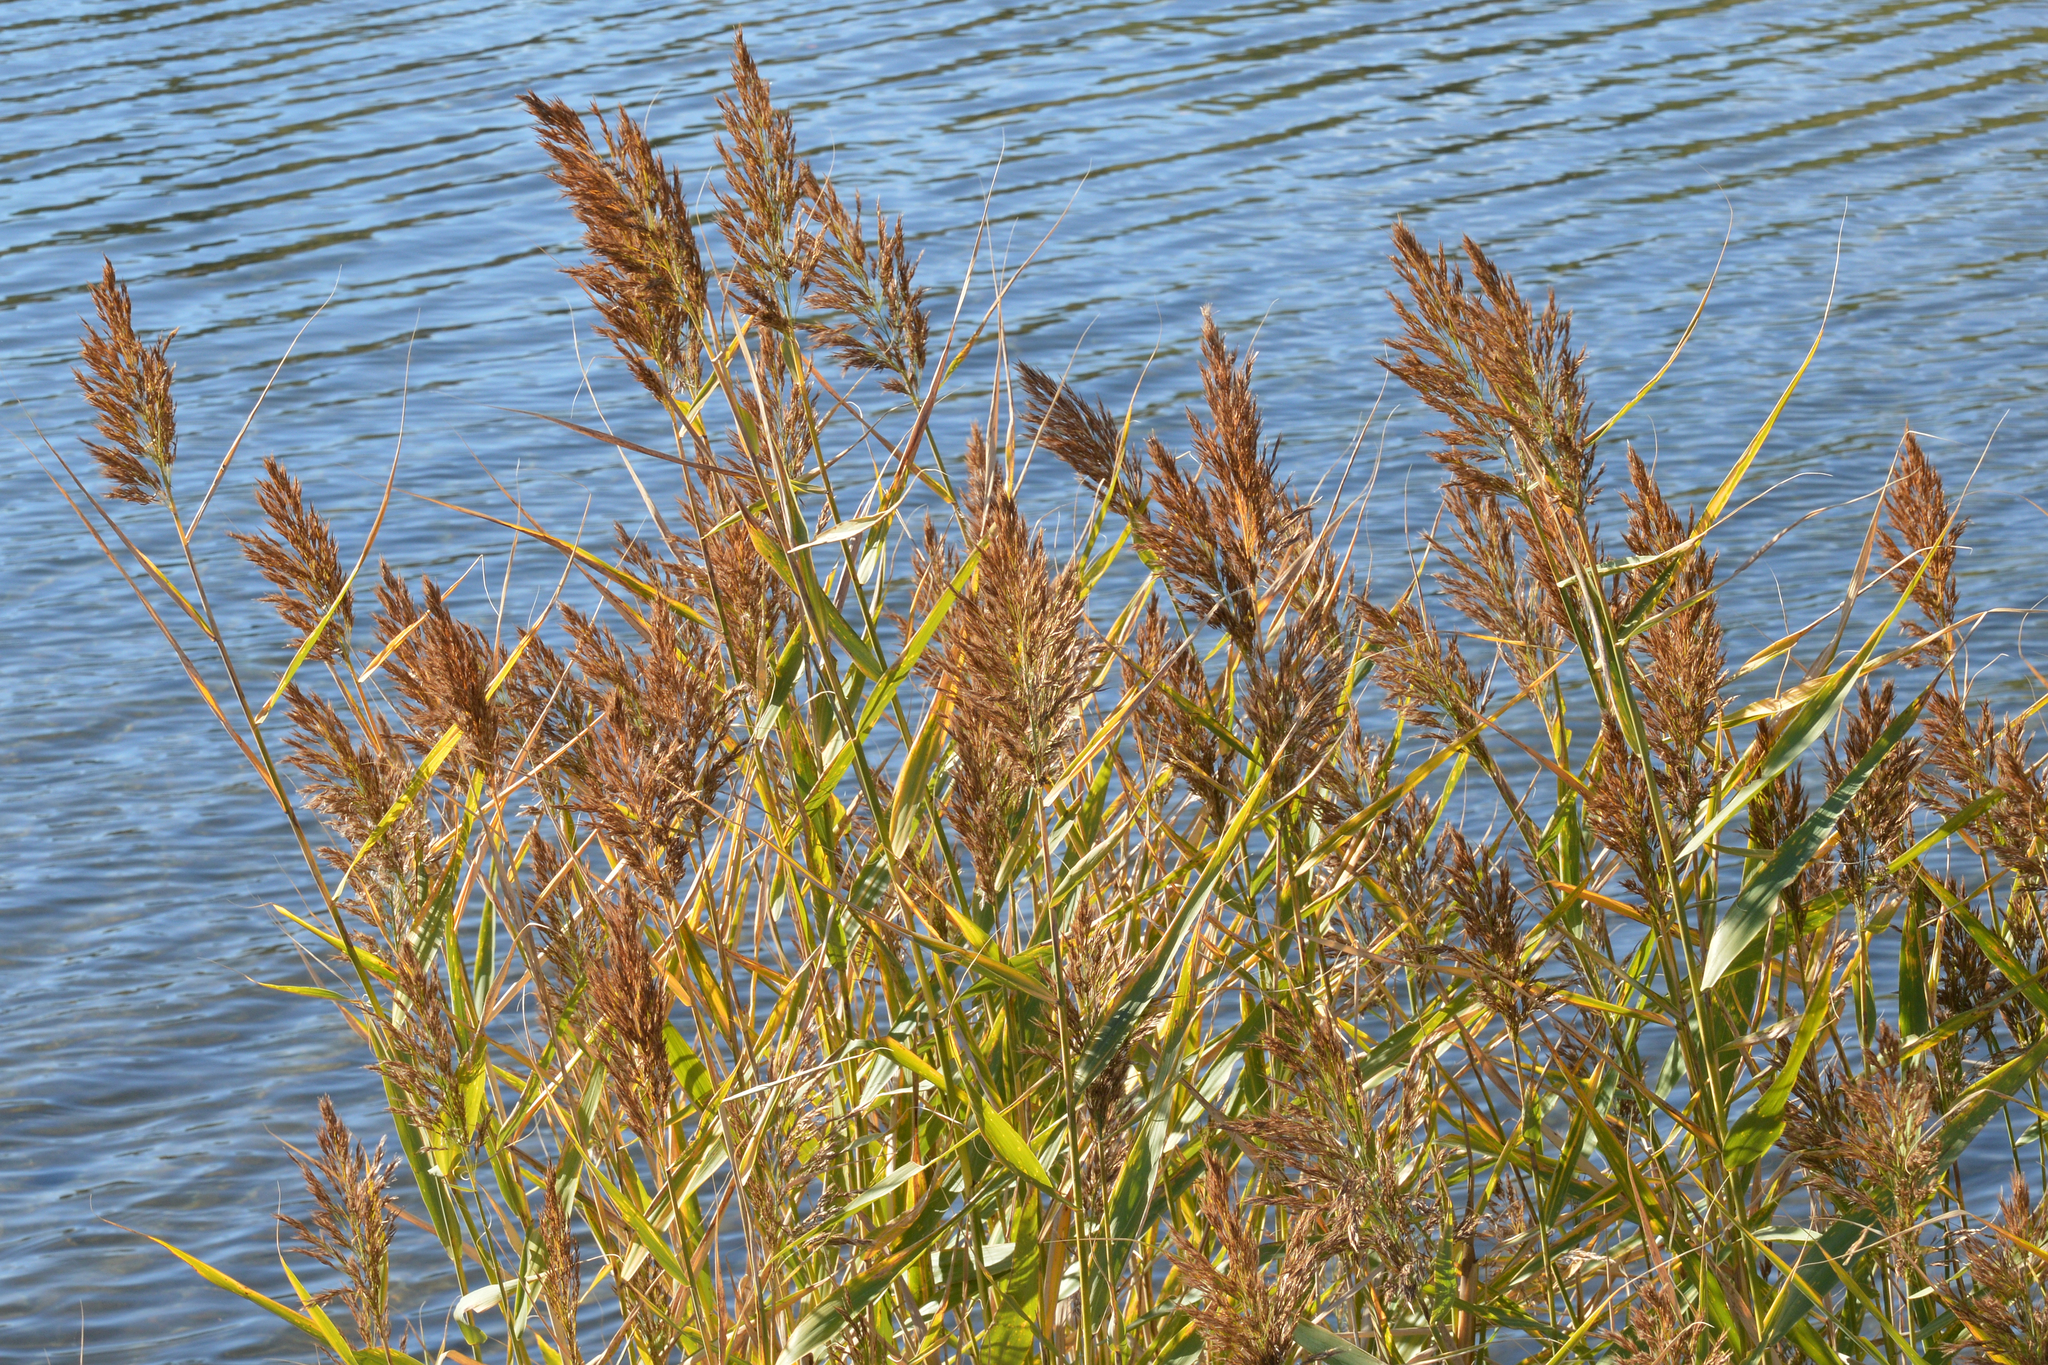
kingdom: Plantae
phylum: Tracheophyta
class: Liliopsida
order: Poales
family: Poaceae
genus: Phragmites
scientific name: Phragmites australis
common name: Common reed
